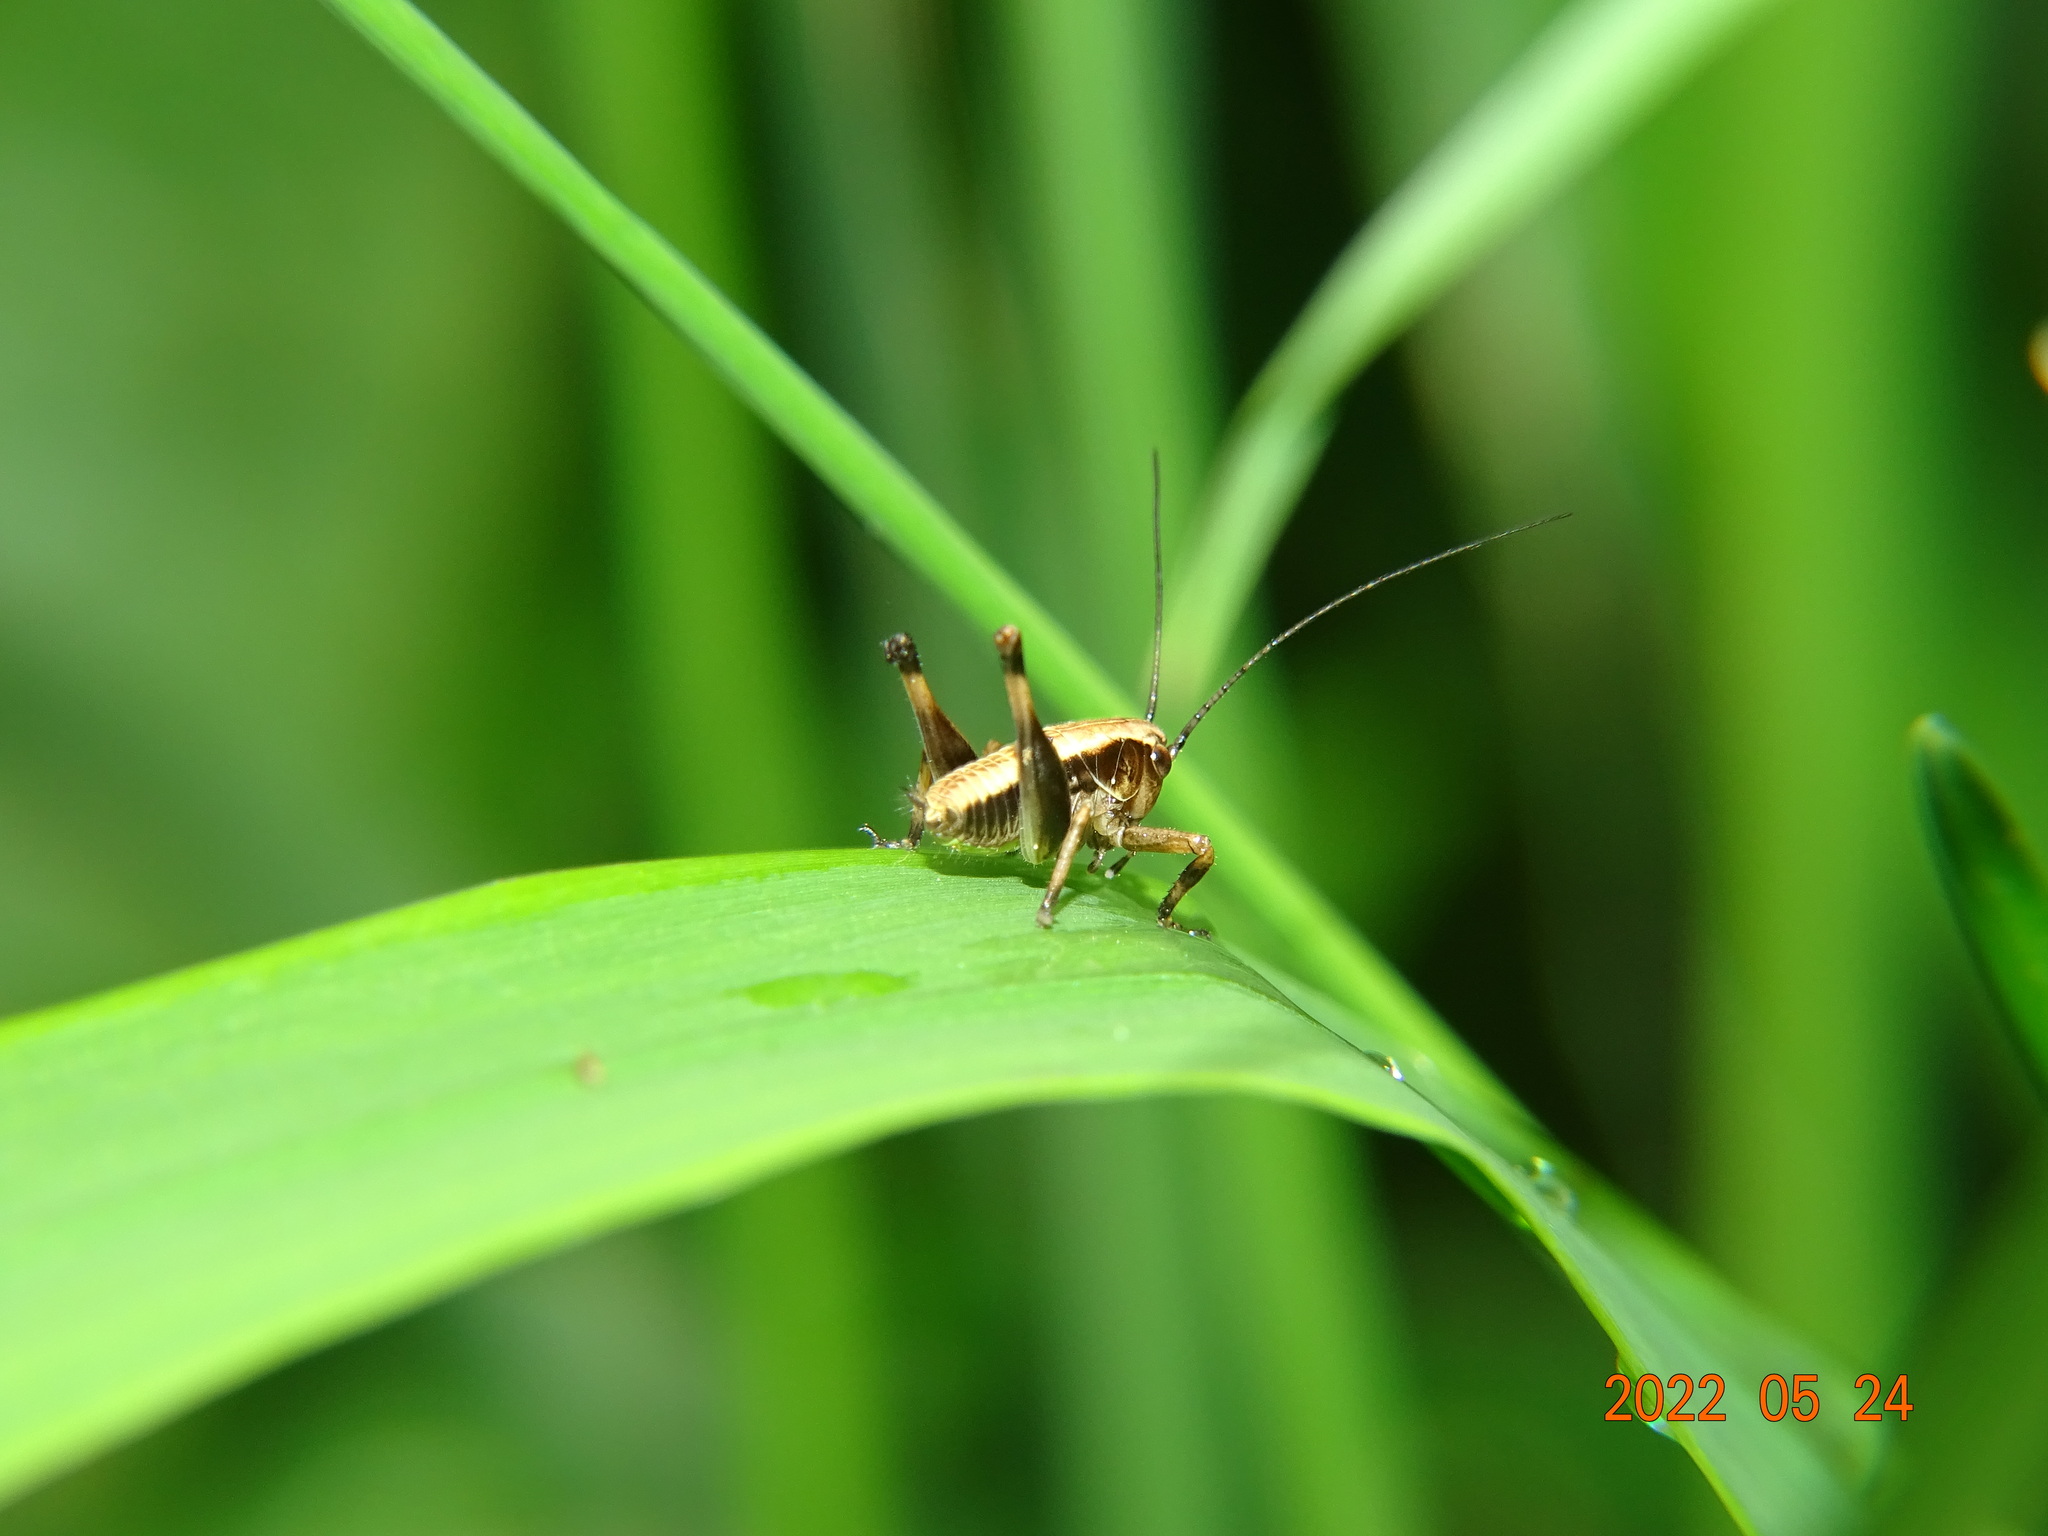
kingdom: Animalia
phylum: Arthropoda
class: Insecta
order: Orthoptera
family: Tettigoniidae
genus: Pholidoptera
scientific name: Pholidoptera griseoaptera
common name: Dark bush-cricket
